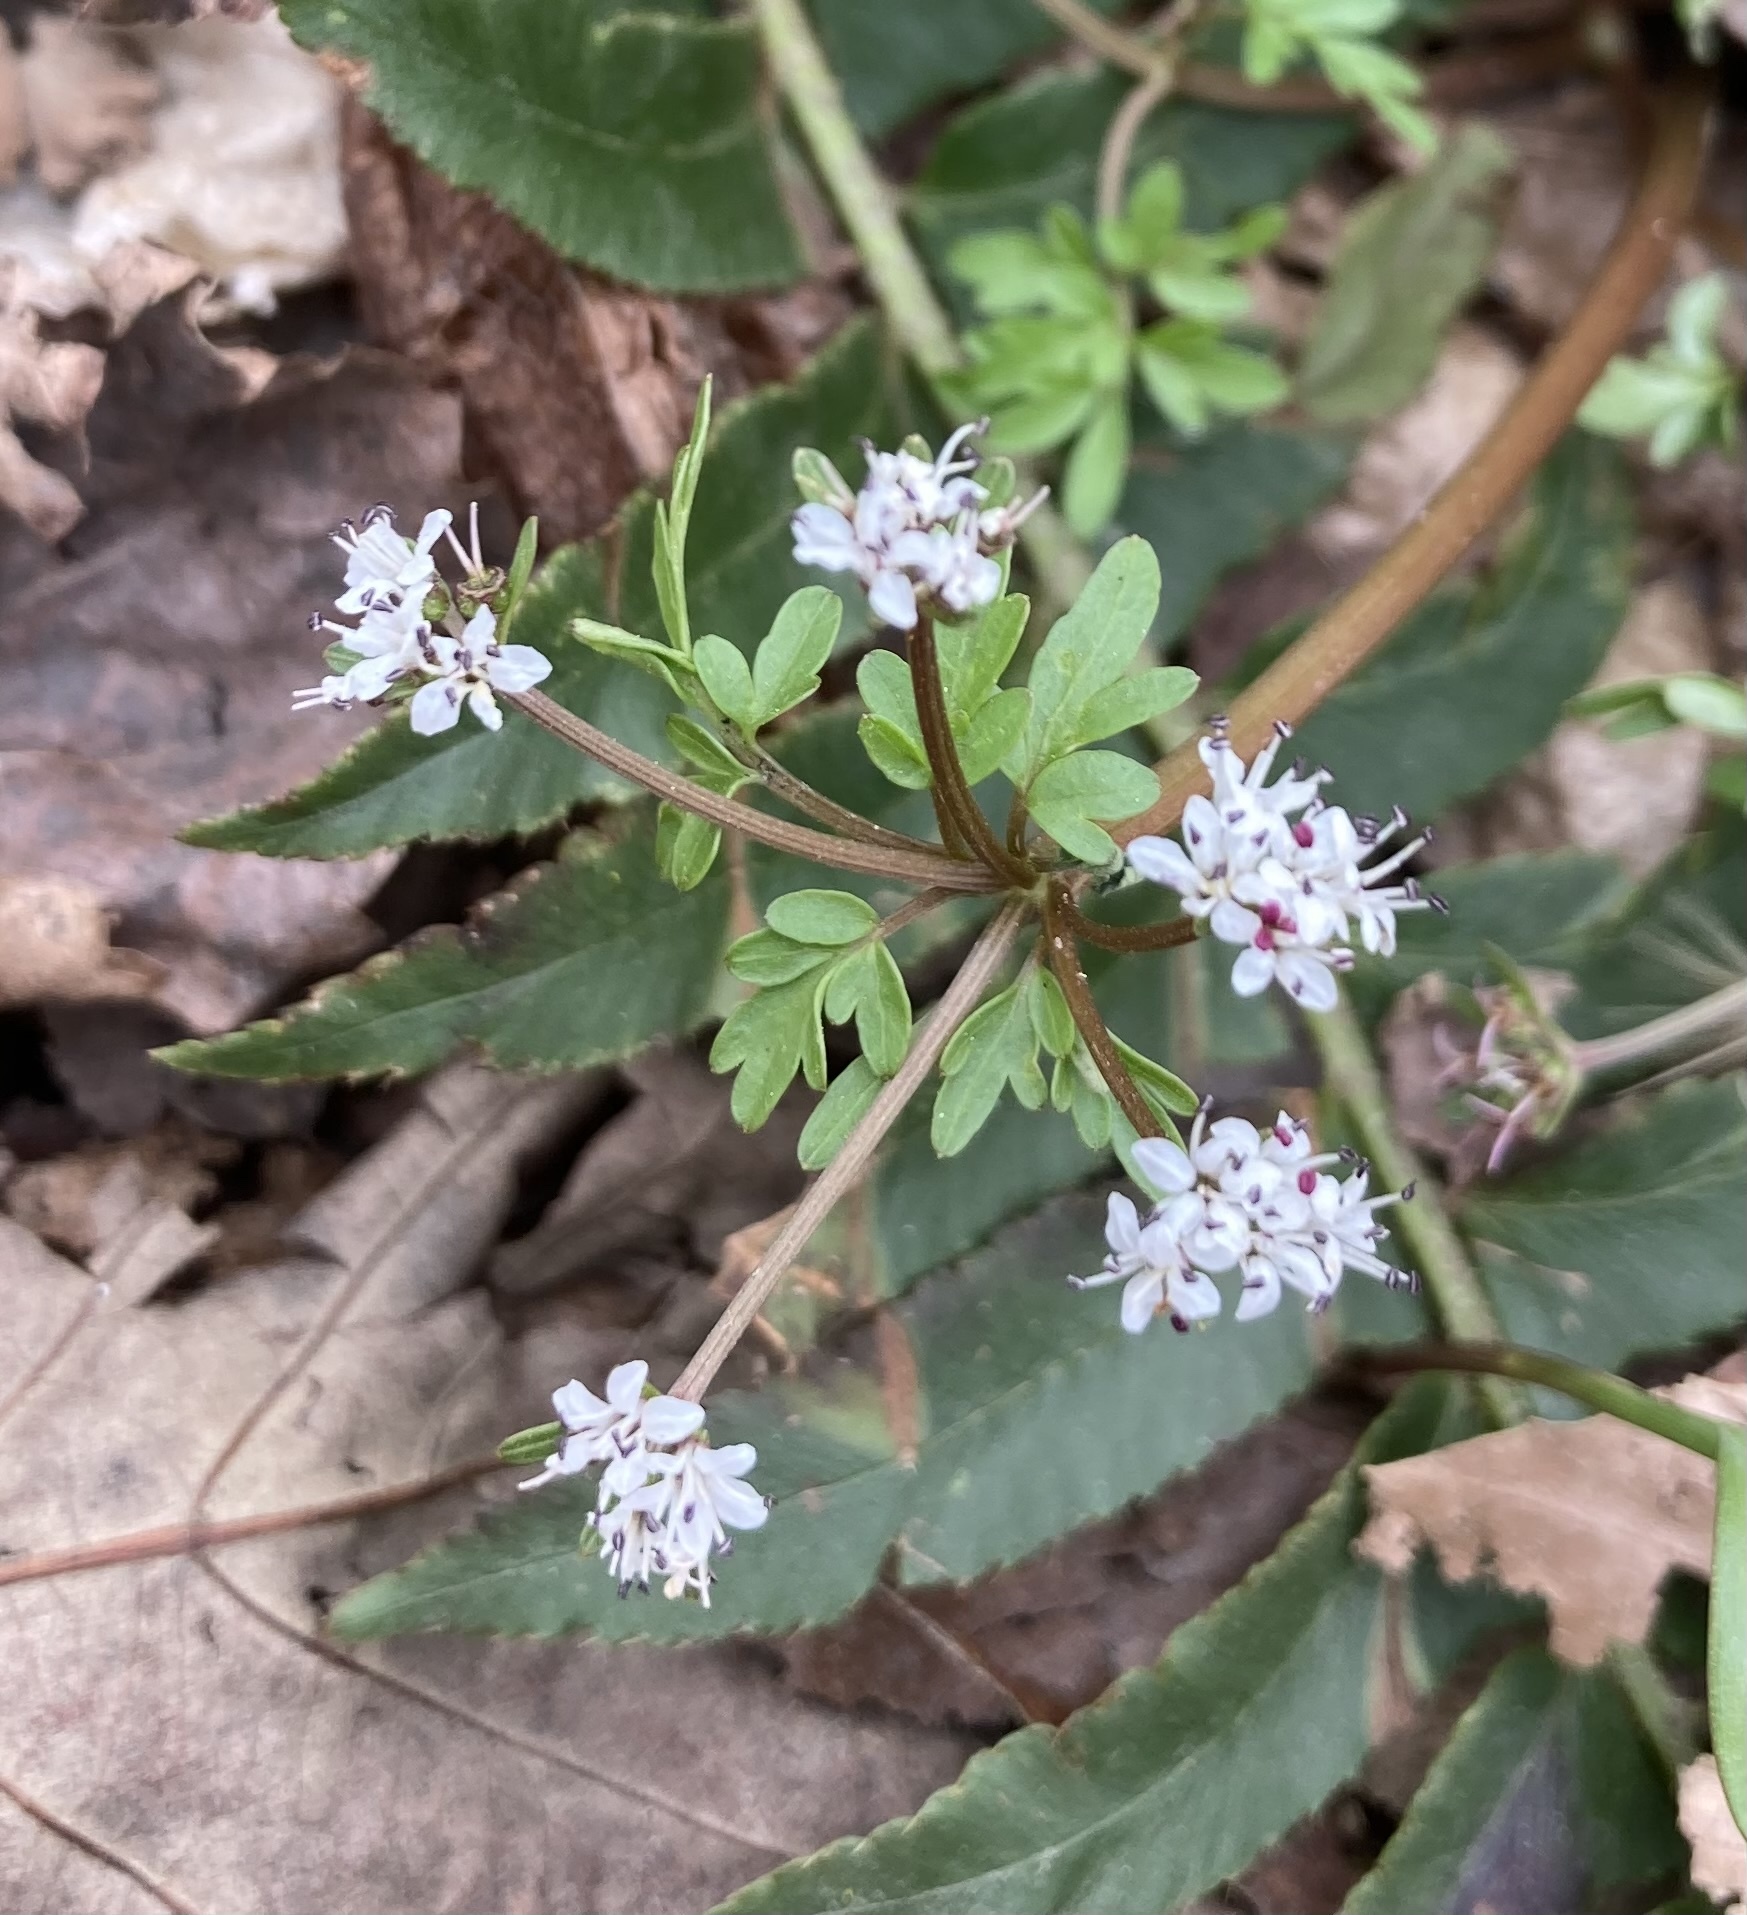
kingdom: Plantae
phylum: Tracheophyta
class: Magnoliopsida
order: Apiales
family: Apiaceae
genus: Erigenia
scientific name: Erigenia bulbosa
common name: Pepper-and-salt
